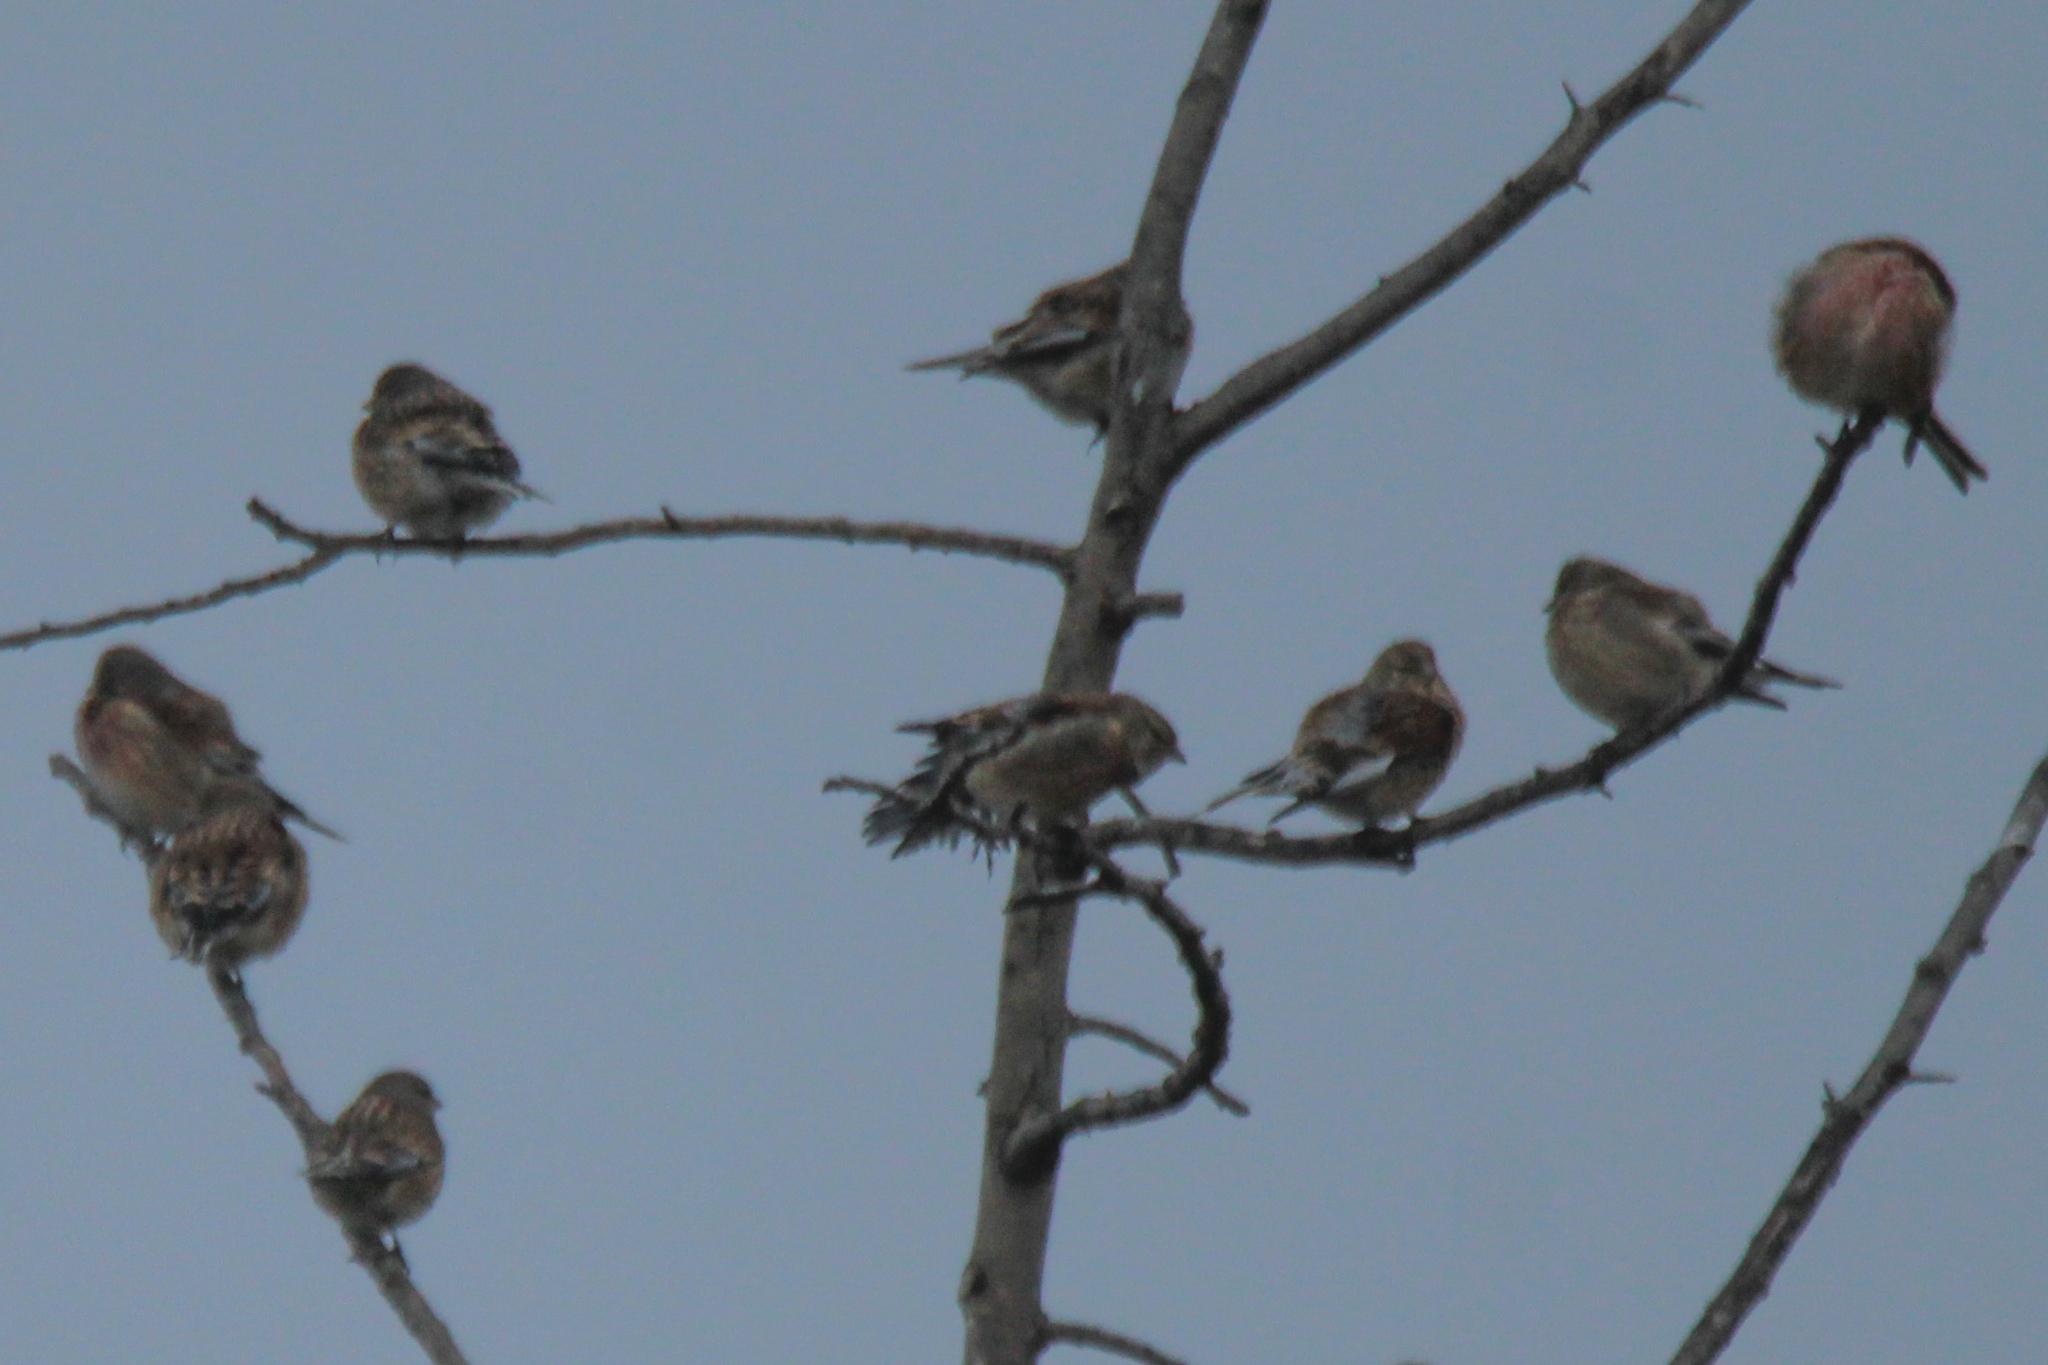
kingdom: Animalia
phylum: Chordata
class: Aves
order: Passeriformes
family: Fringillidae
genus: Linaria
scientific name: Linaria cannabina
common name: Common linnet
